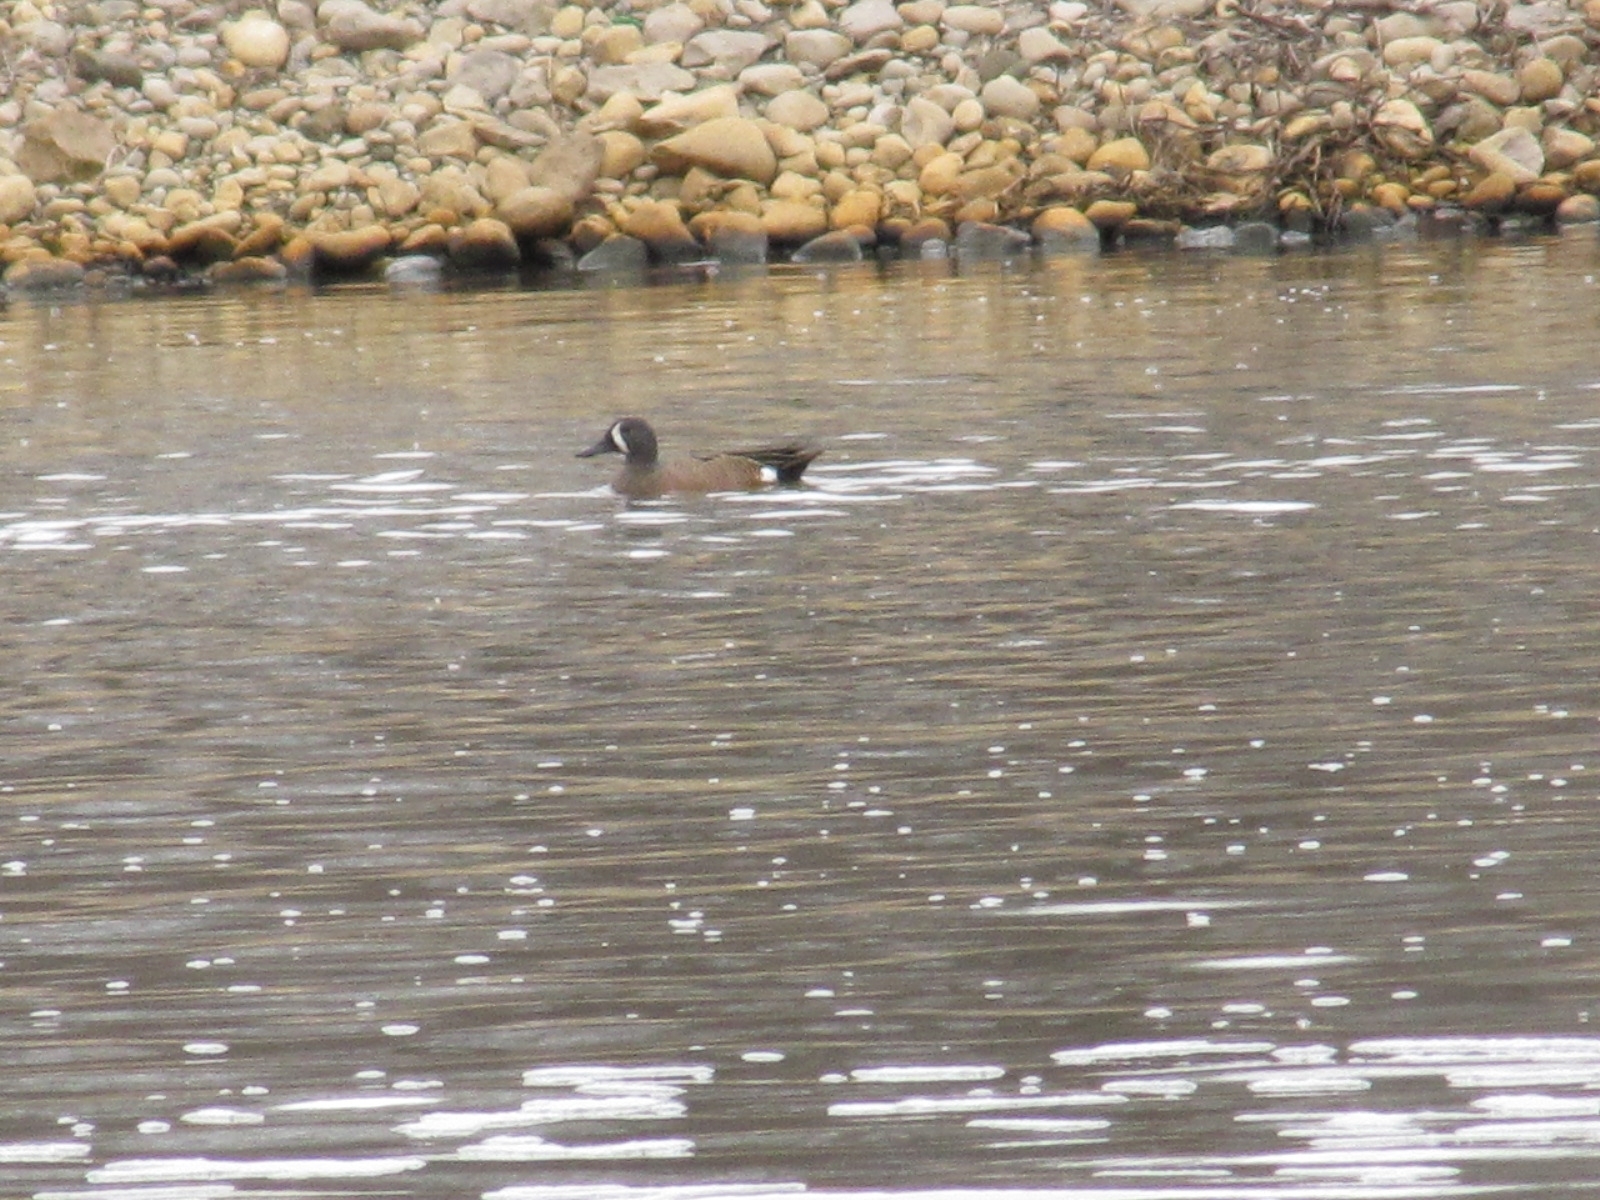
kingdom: Animalia
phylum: Chordata
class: Aves
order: Anseriformes
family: Anatidae
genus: Spatula
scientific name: Spatula discors
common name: Blue-winged teal
